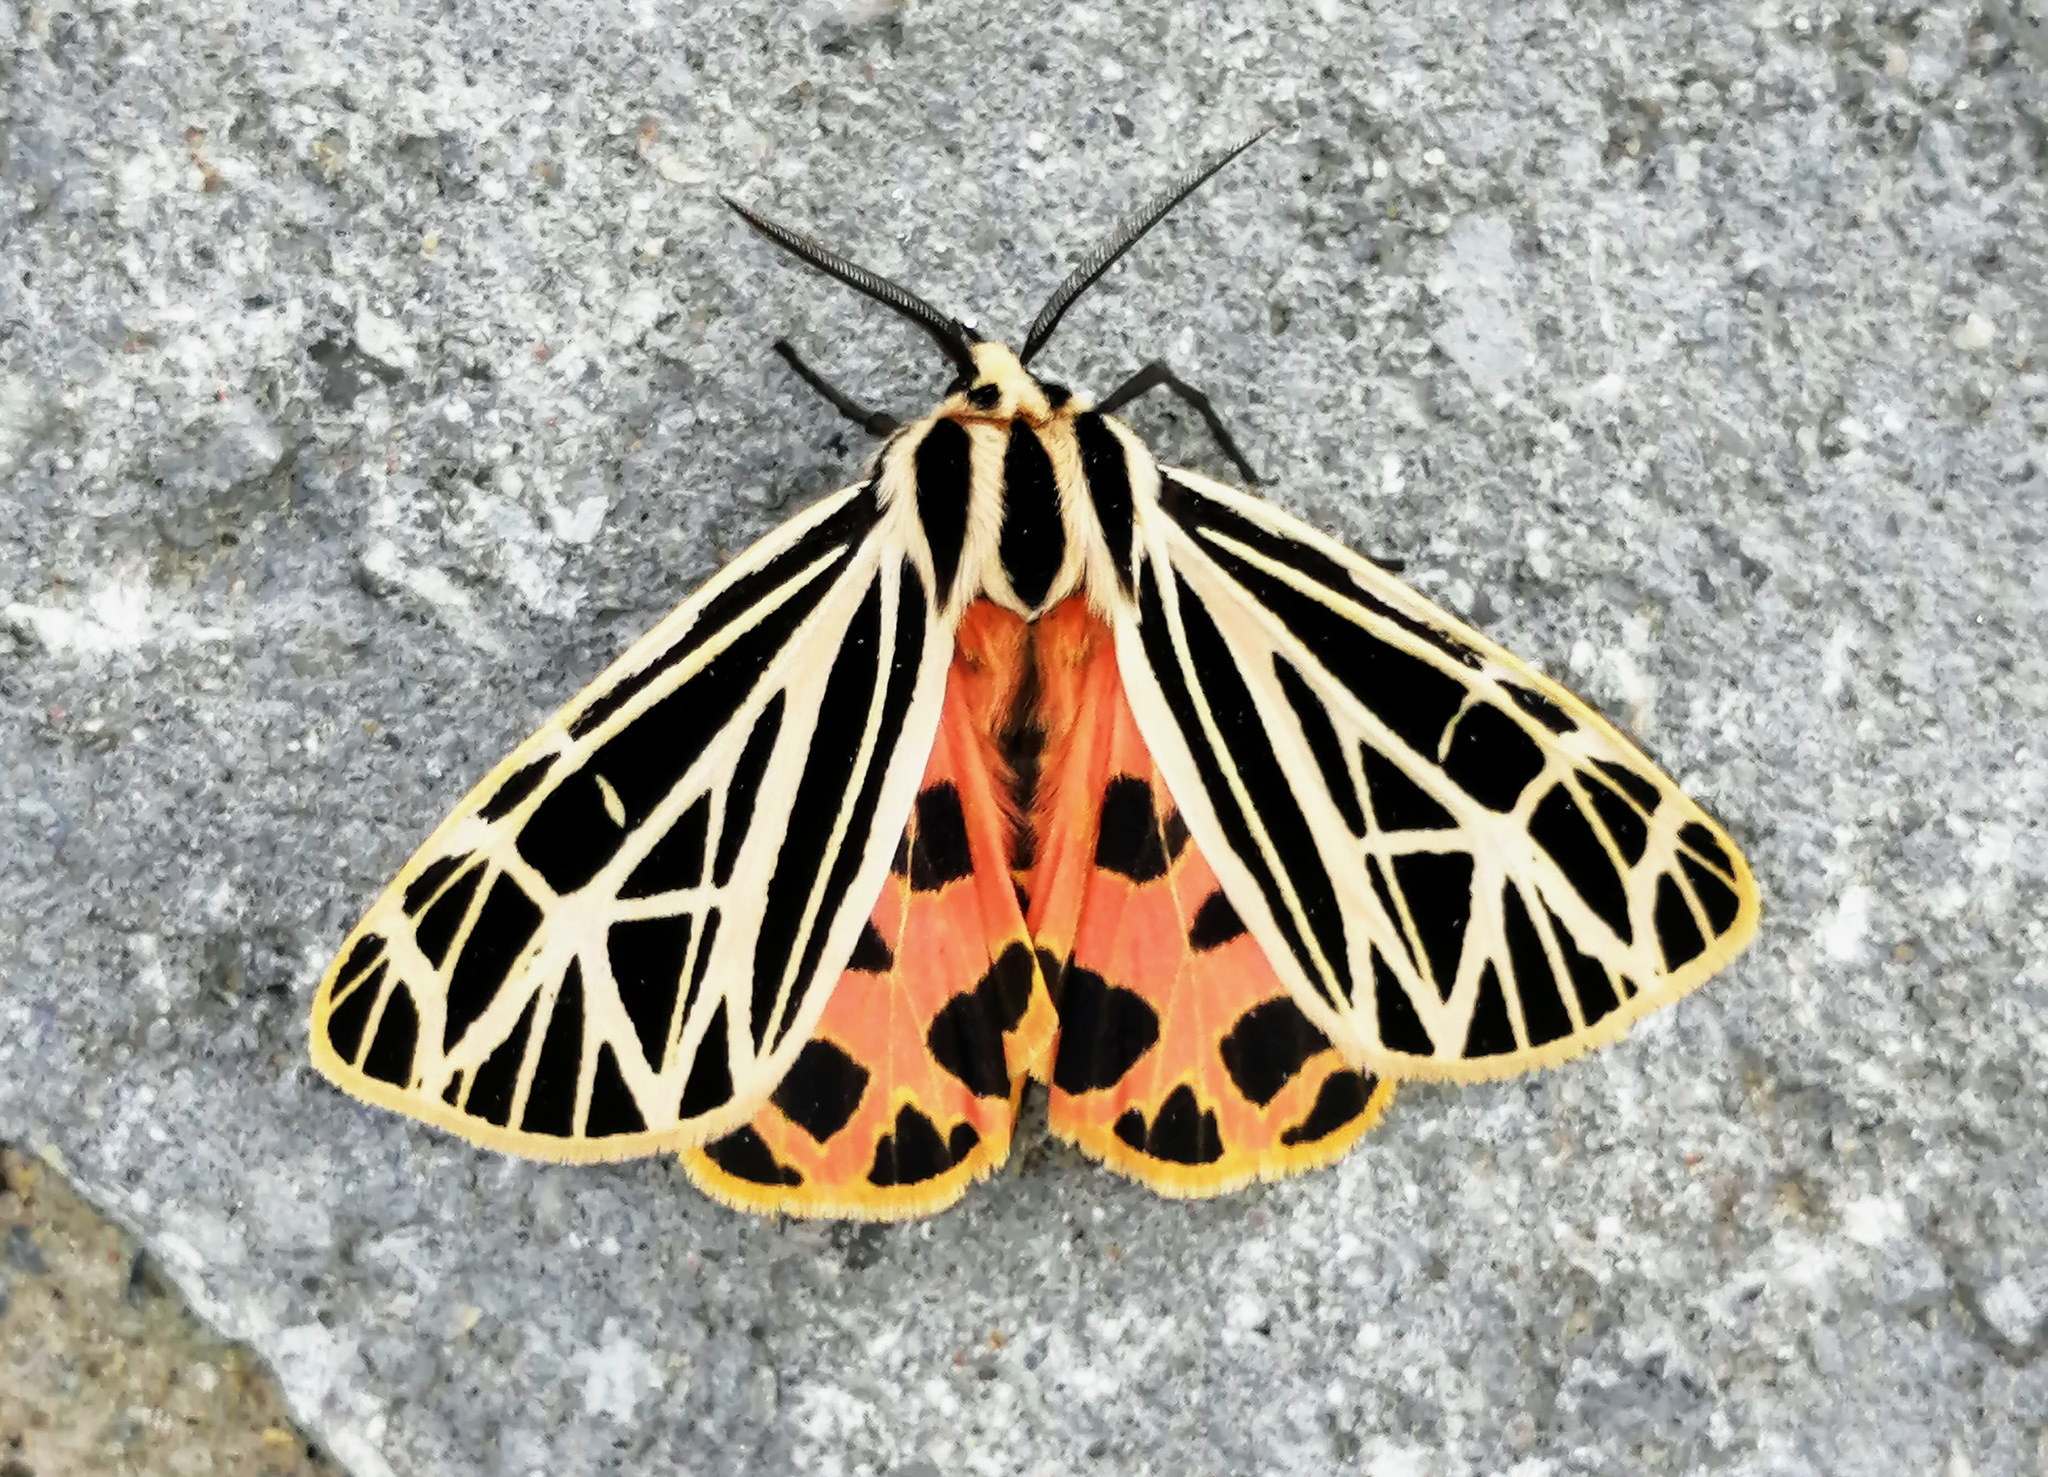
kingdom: Animalia
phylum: Arthropoda
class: Insecta
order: Lepidoptera
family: Erebidae
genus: Grammia
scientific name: Grammia virgo
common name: Virgin tiger moth
